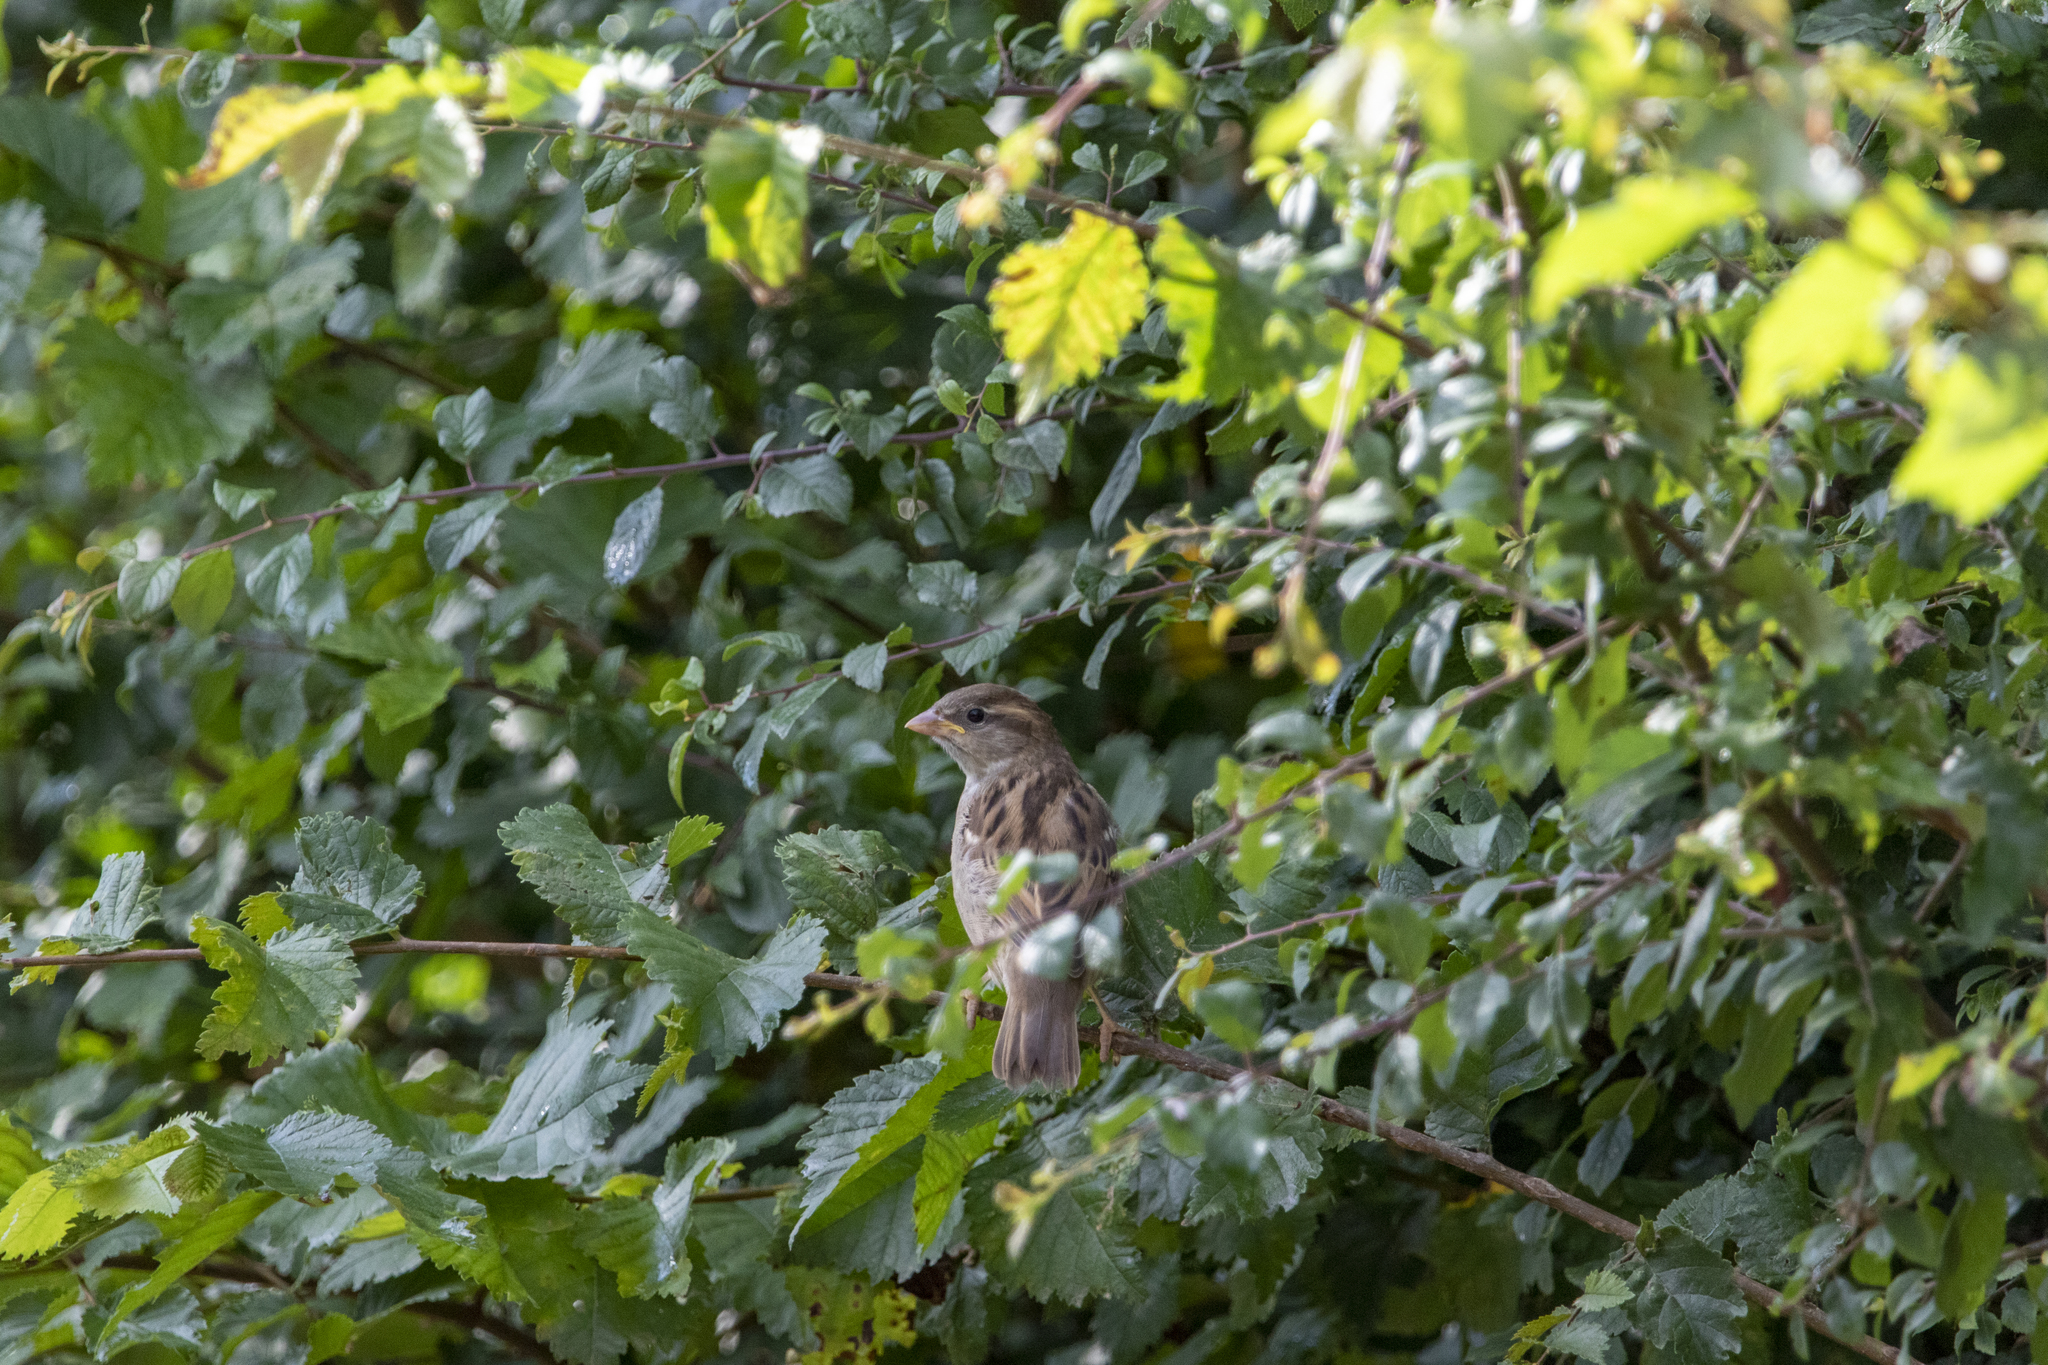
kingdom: Animalia
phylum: Chordata
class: Aves
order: Passeriformes
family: Passeridae
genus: Passer
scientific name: Passer domesticus
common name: House sparrow
